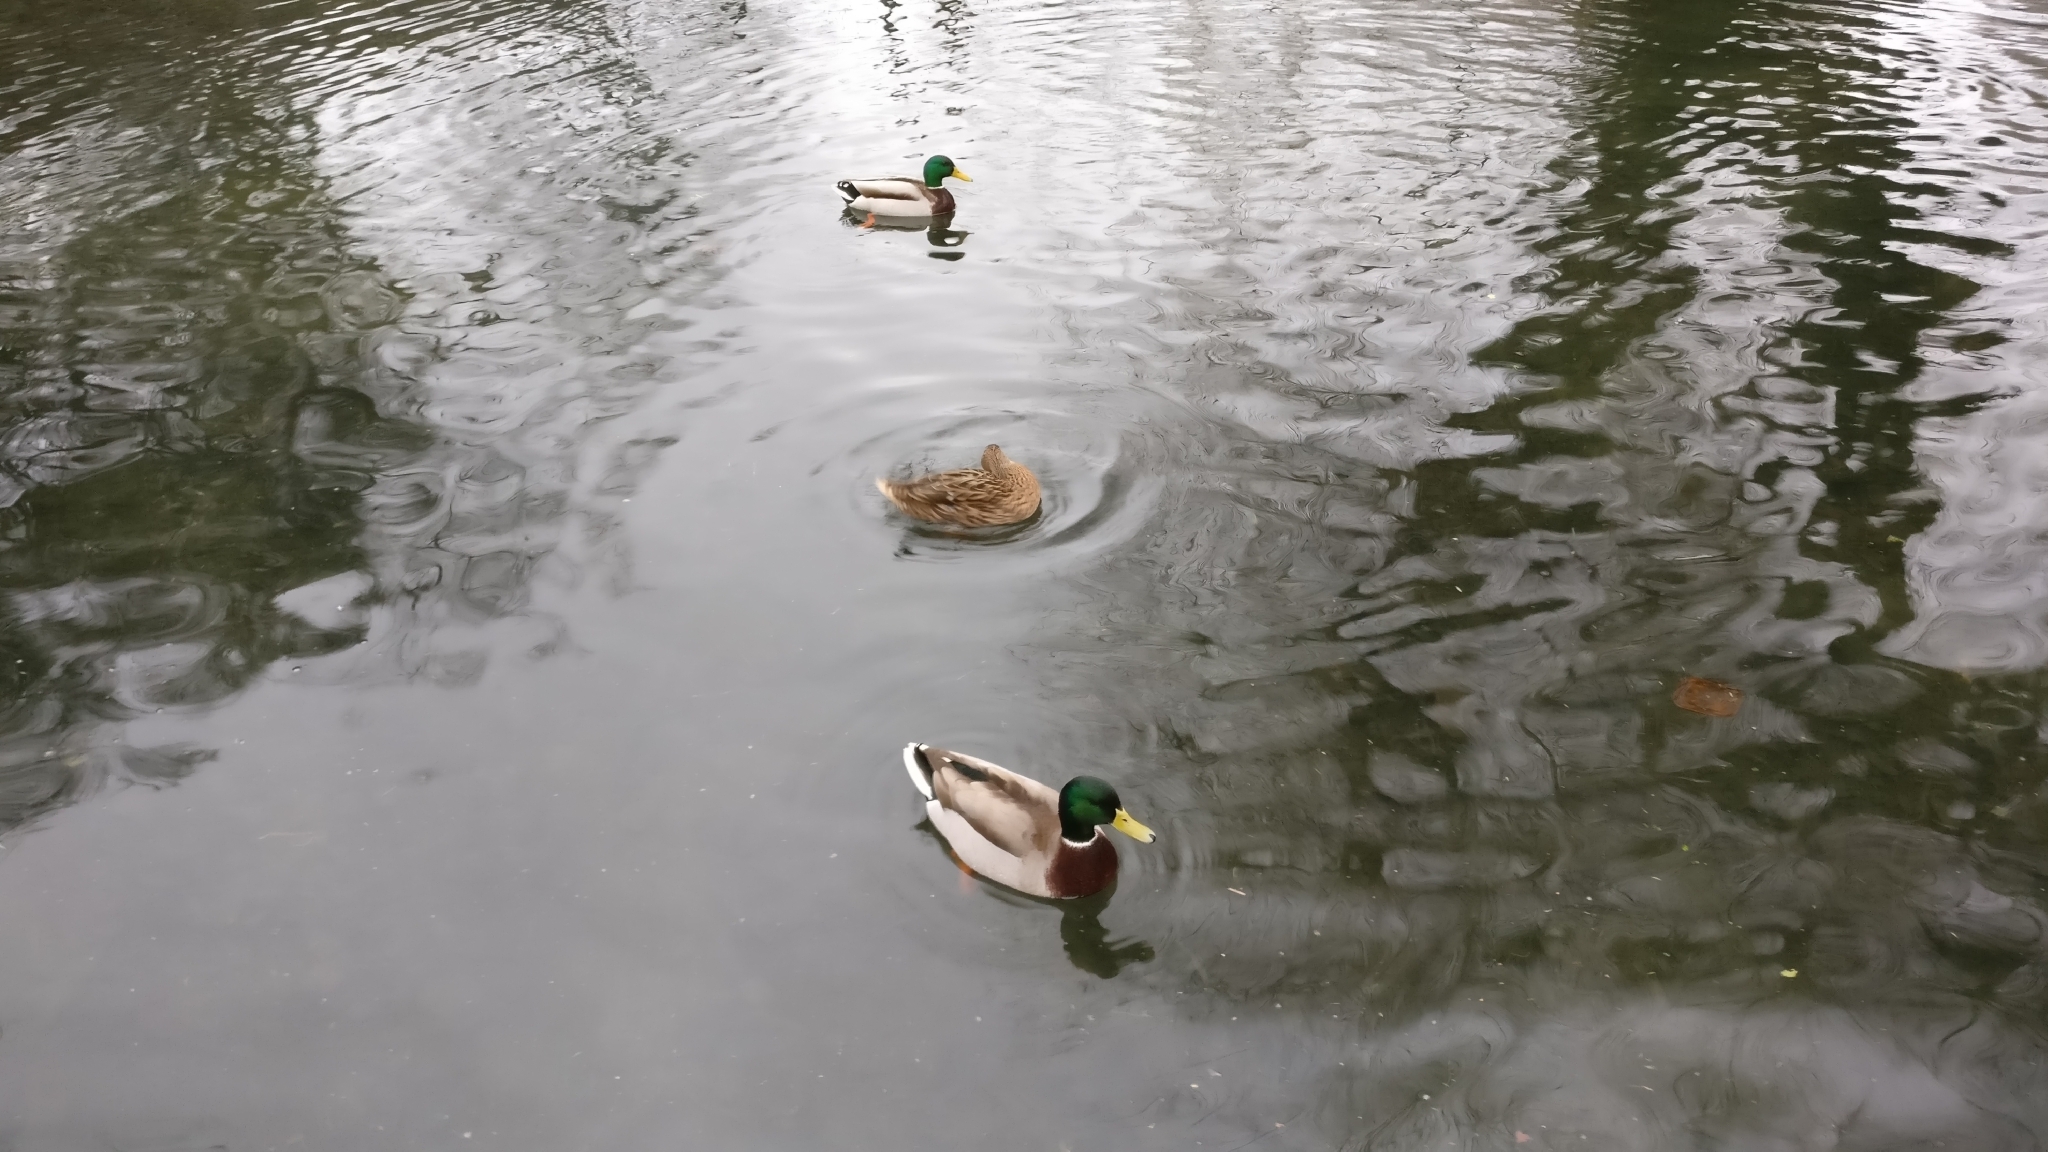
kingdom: Animalia
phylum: Chordata
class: Aves
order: Anseriformes
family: Anatidae
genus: Anas
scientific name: Anas platyrhynchos
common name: Mallard
